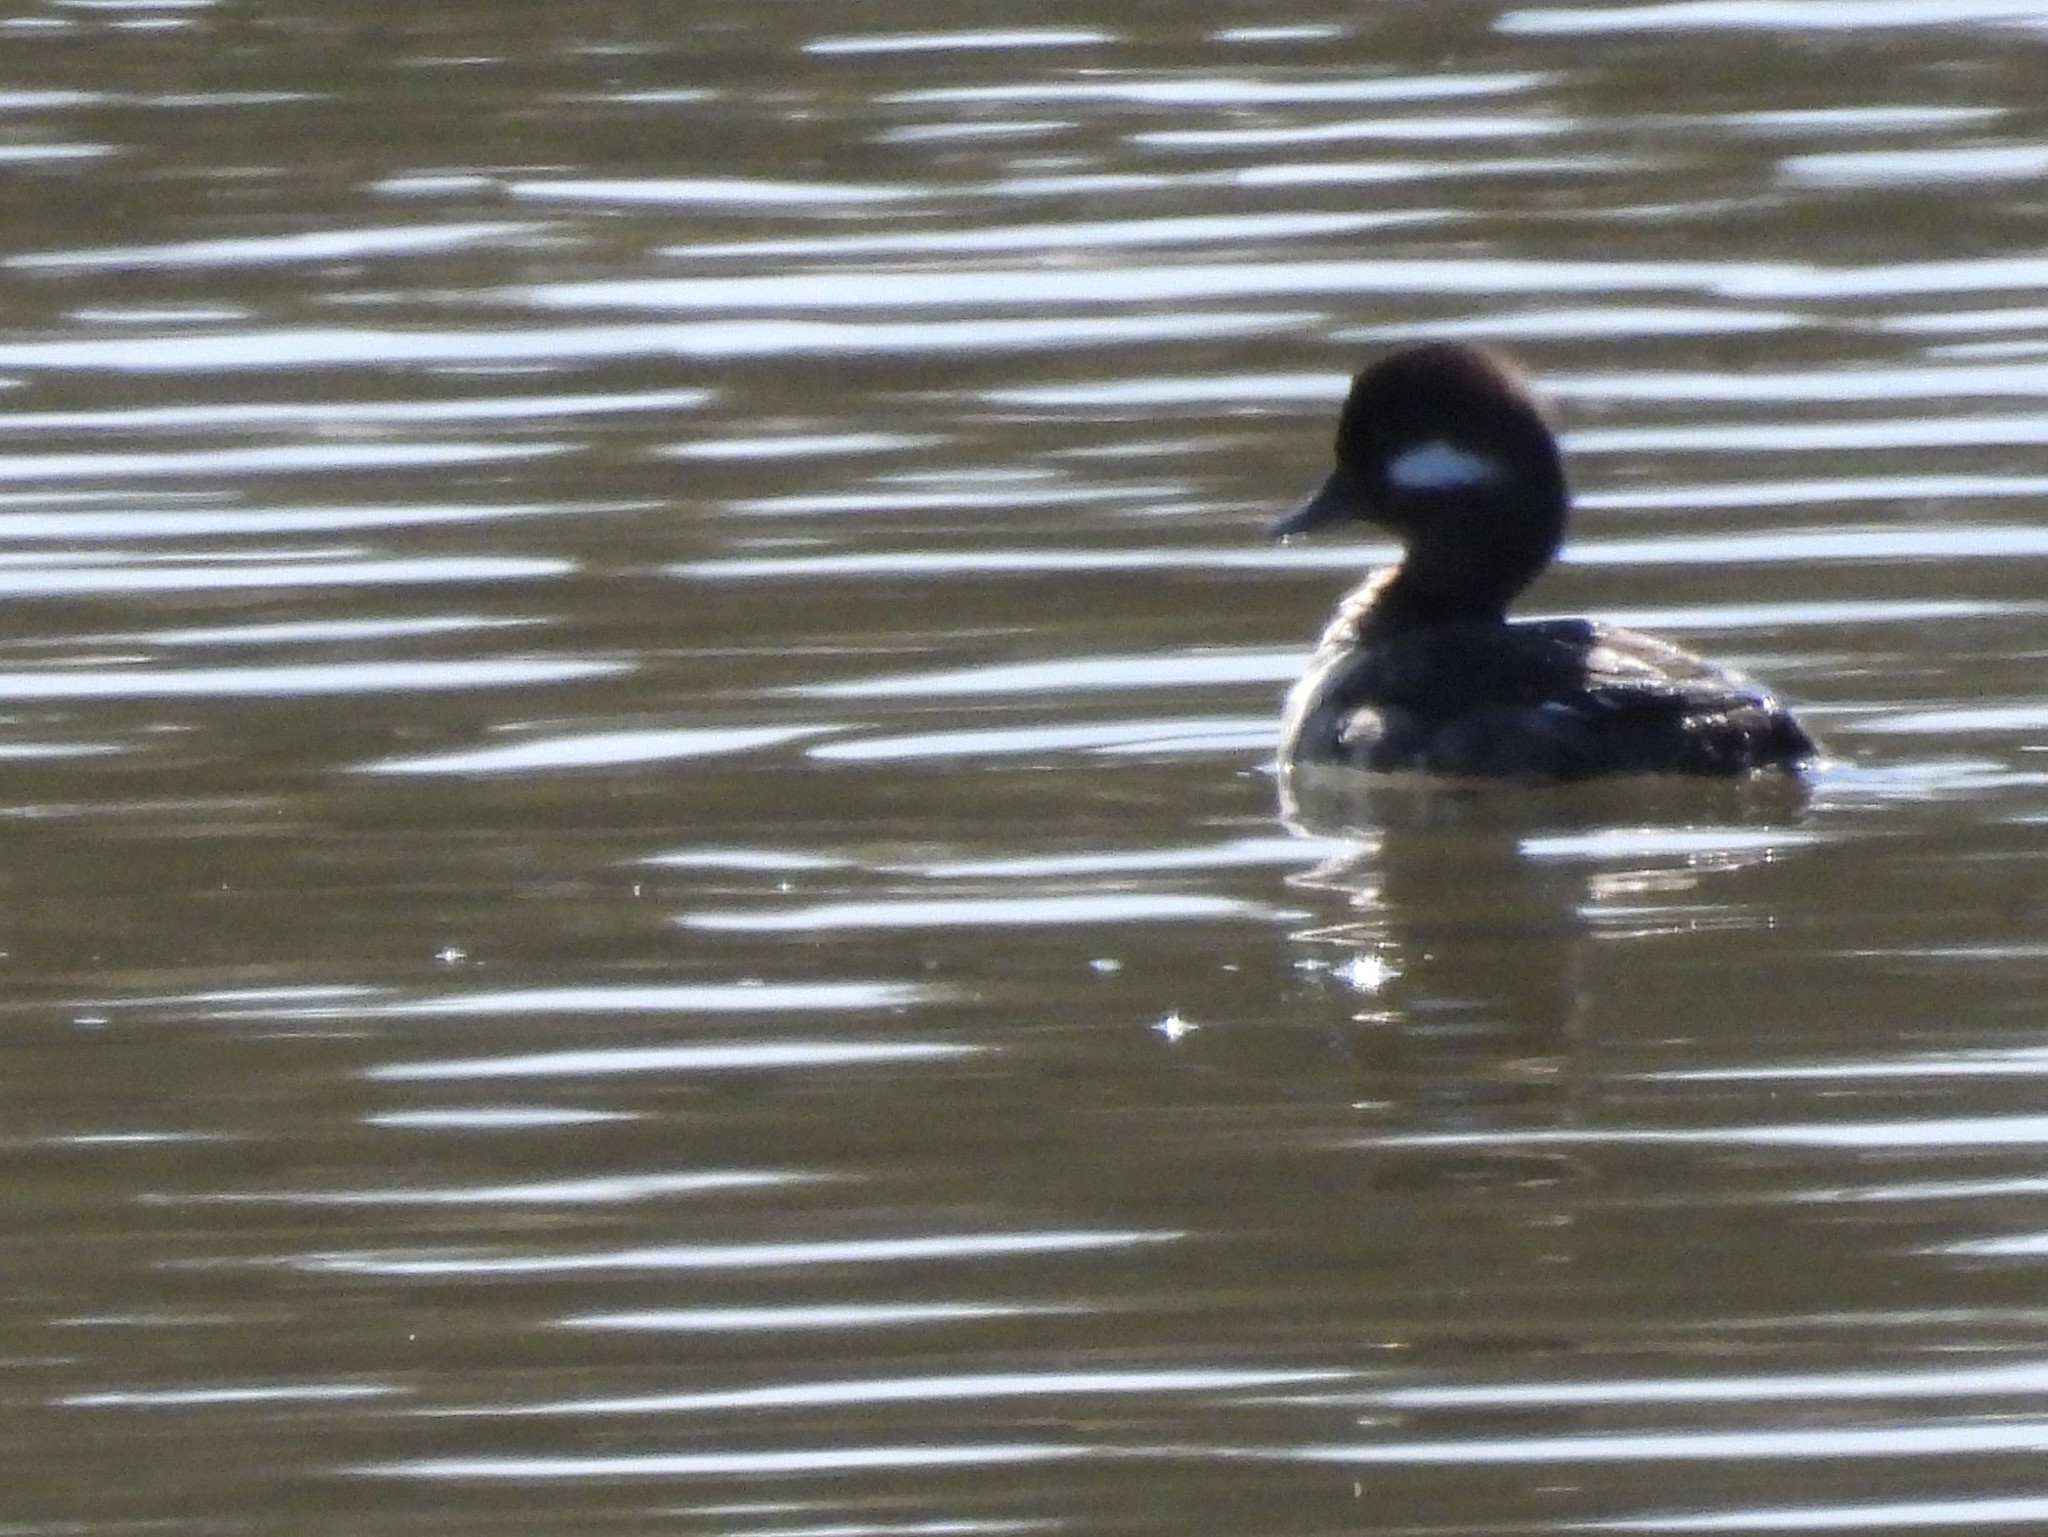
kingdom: Animalia
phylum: Chordata
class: Aves
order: Anseriformes
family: Anatidae
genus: Bucephala
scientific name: Bucephala albeola
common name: Bufflehead
